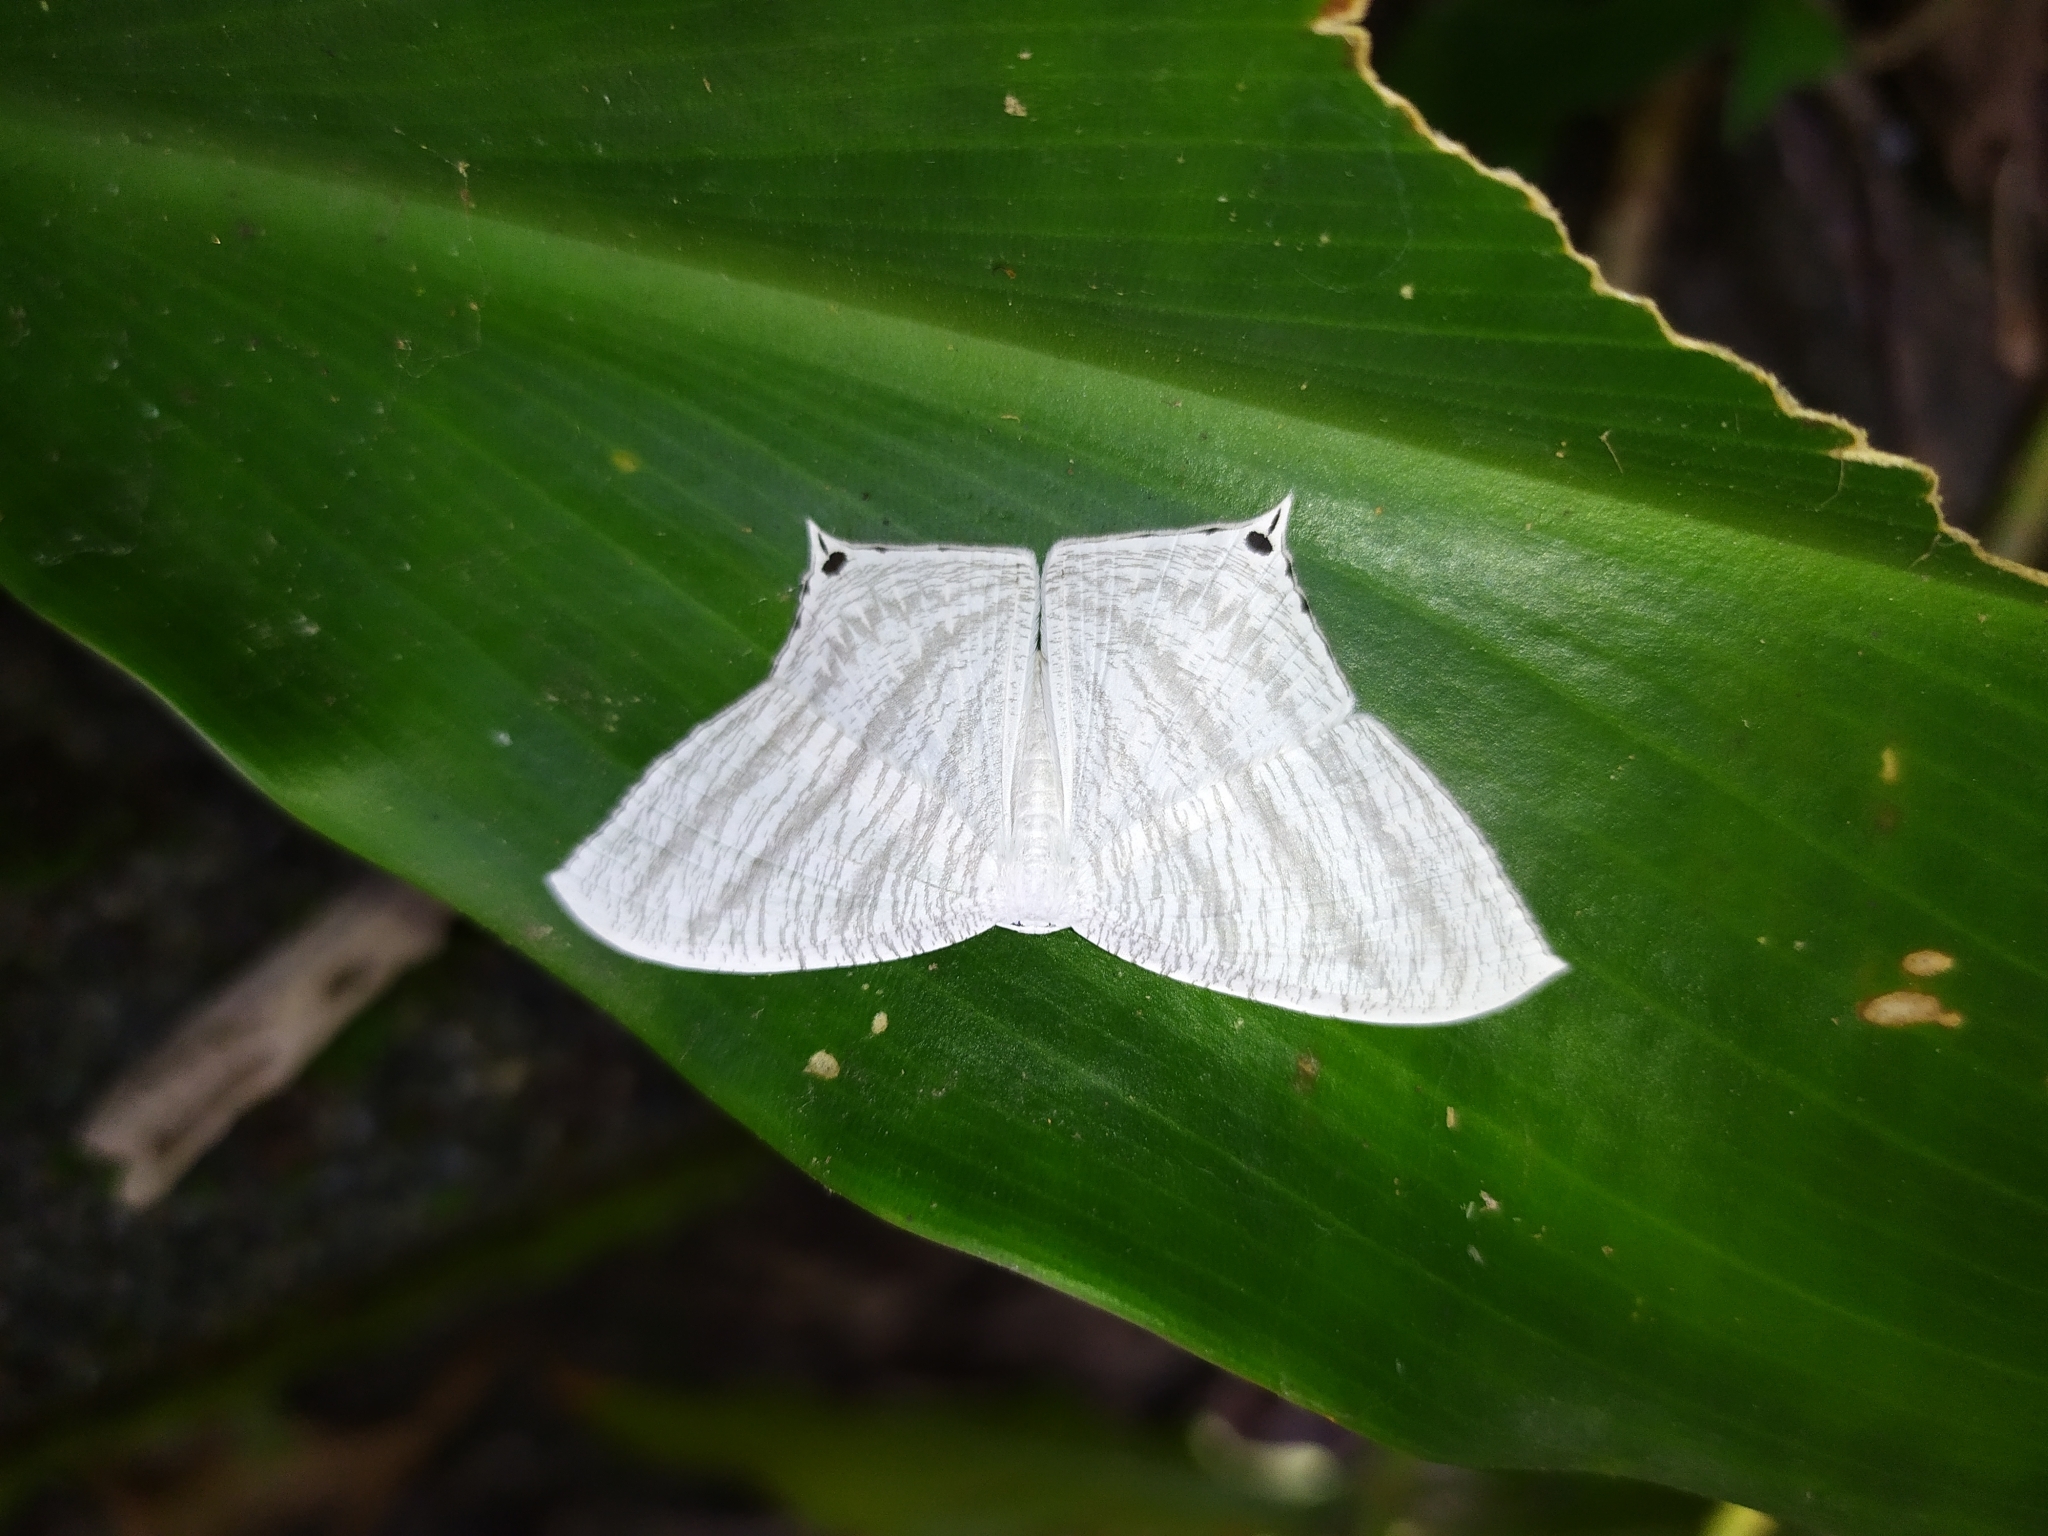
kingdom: Animalia
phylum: Arthropoda
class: Insecta
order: Lepidoptera
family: Uraniidae
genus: Micronia
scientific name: Micronia aculeata
